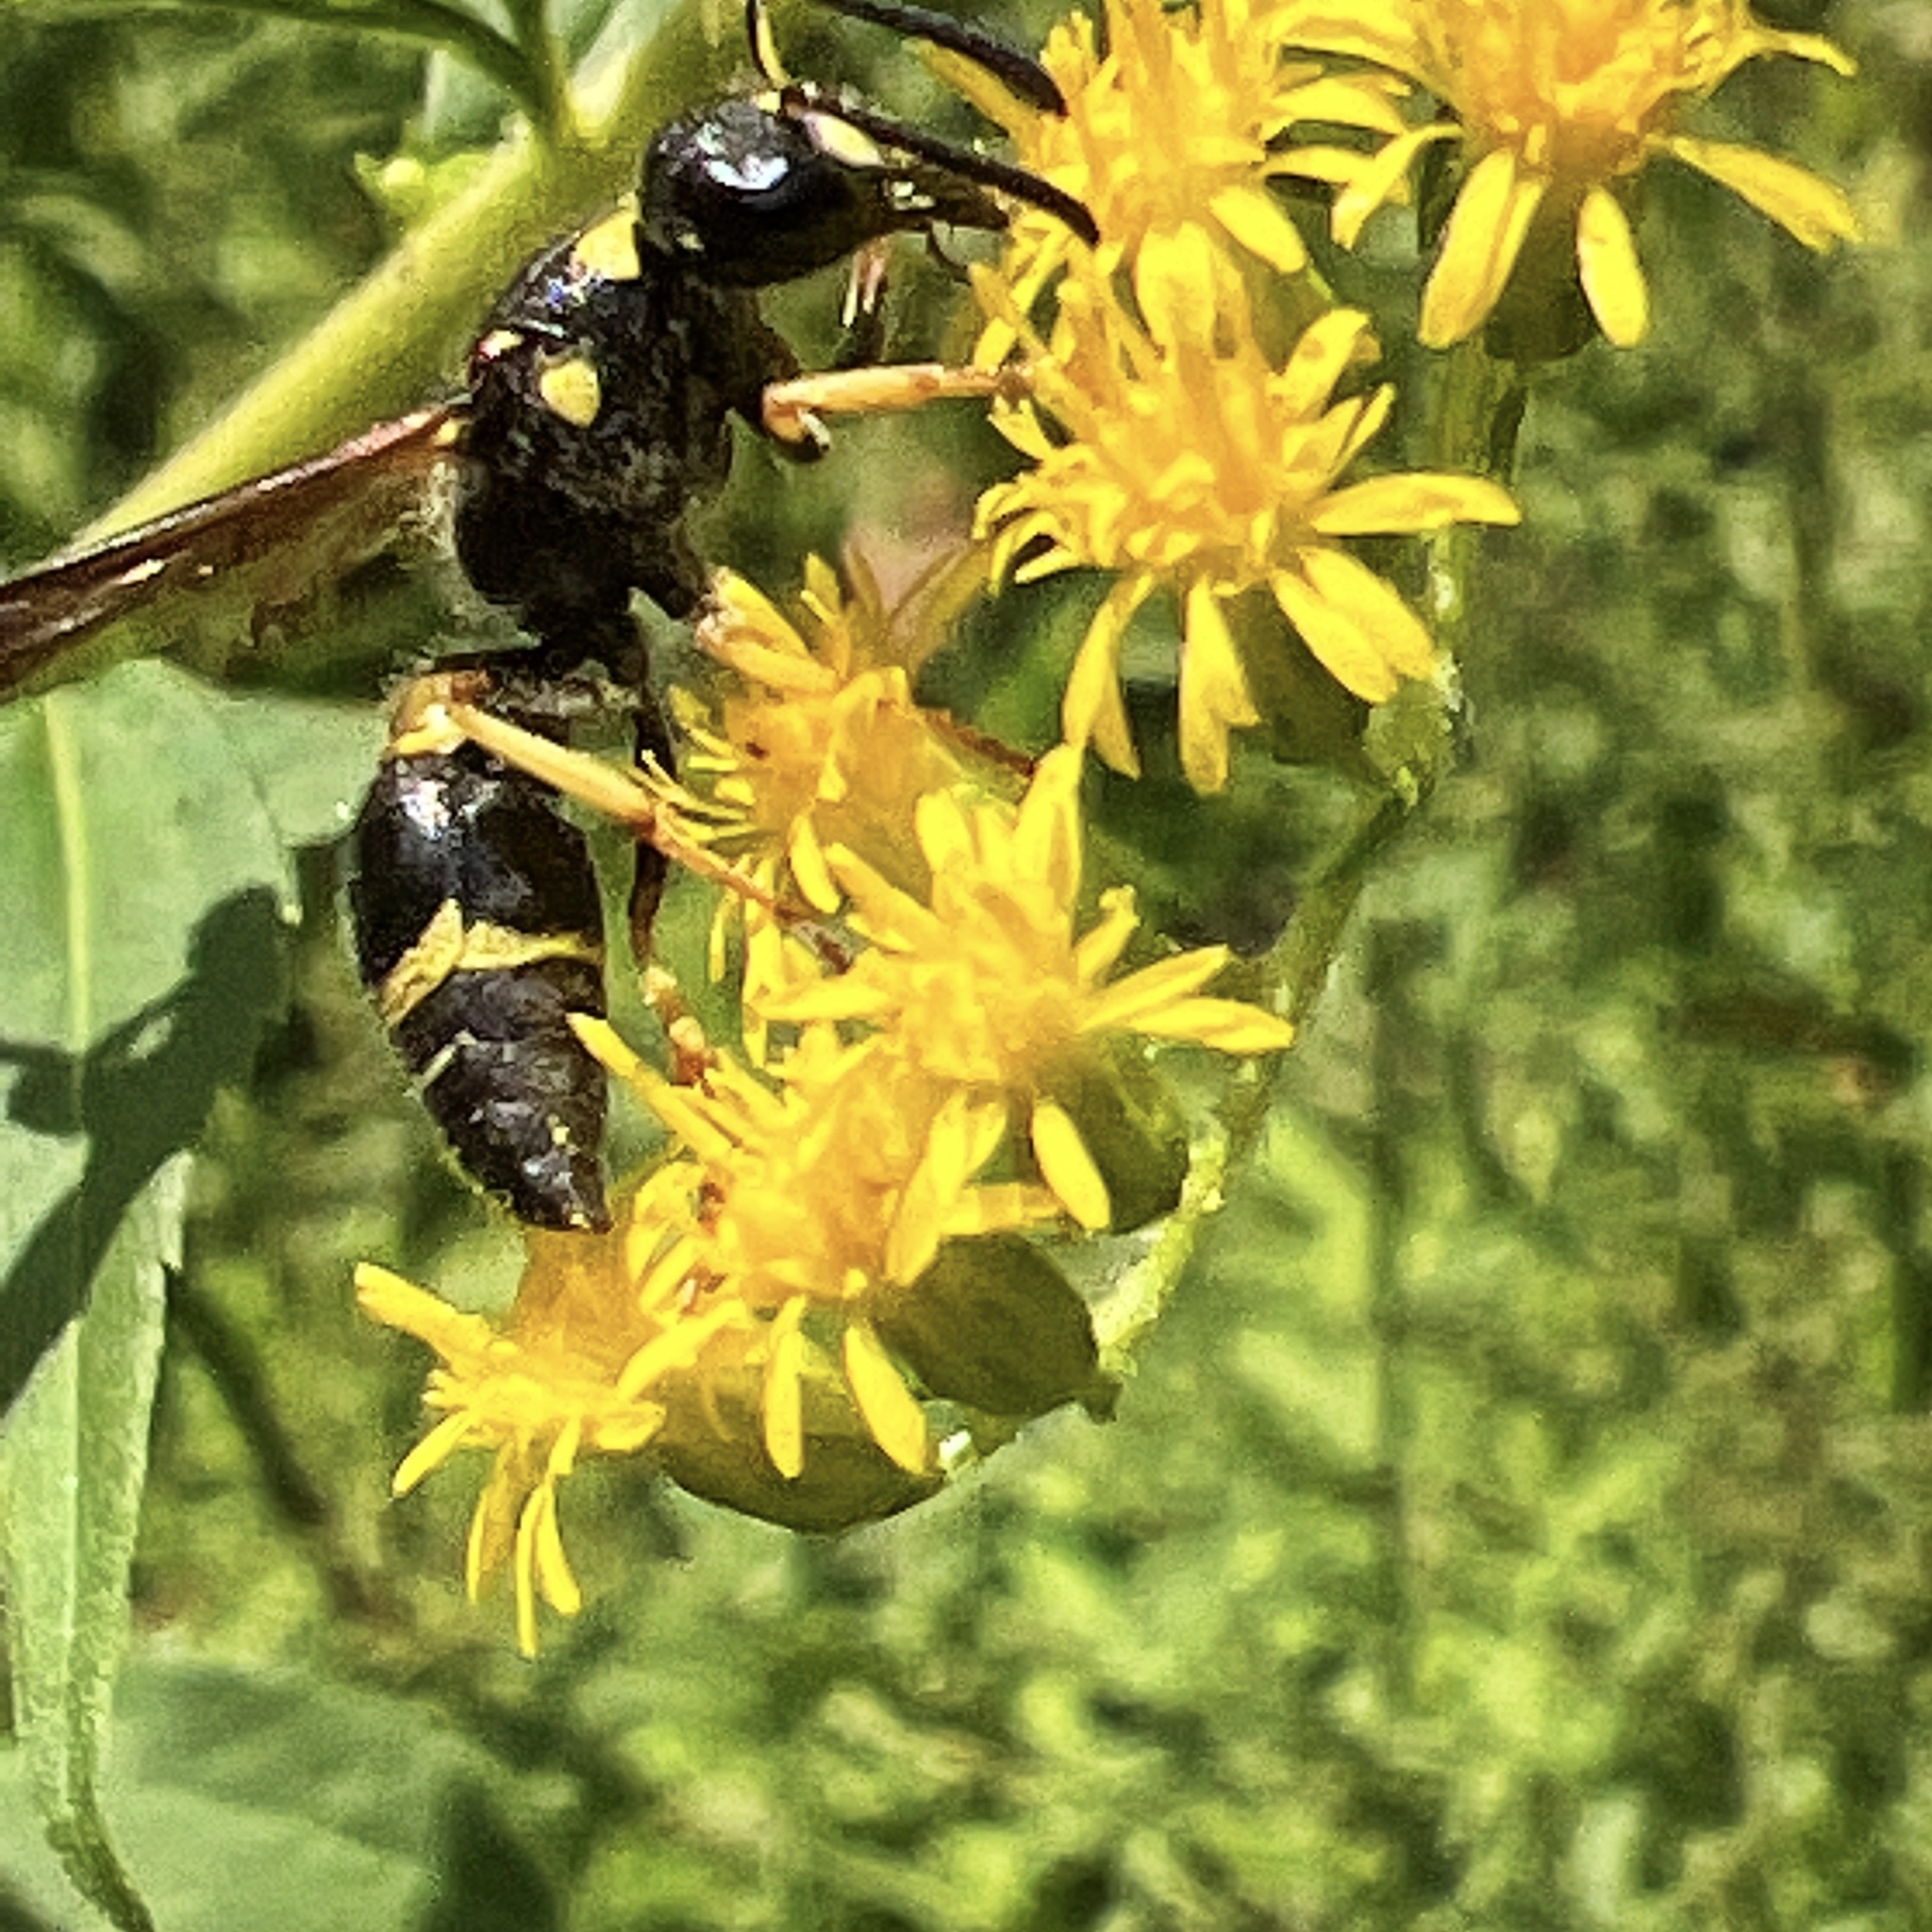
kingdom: Animalia
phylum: Arthropoda
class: Insecta
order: Hymenoptera
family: Vespidae
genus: Ancistrocerus
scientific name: Ancistrocerus campestris
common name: Smiling mason wasp
